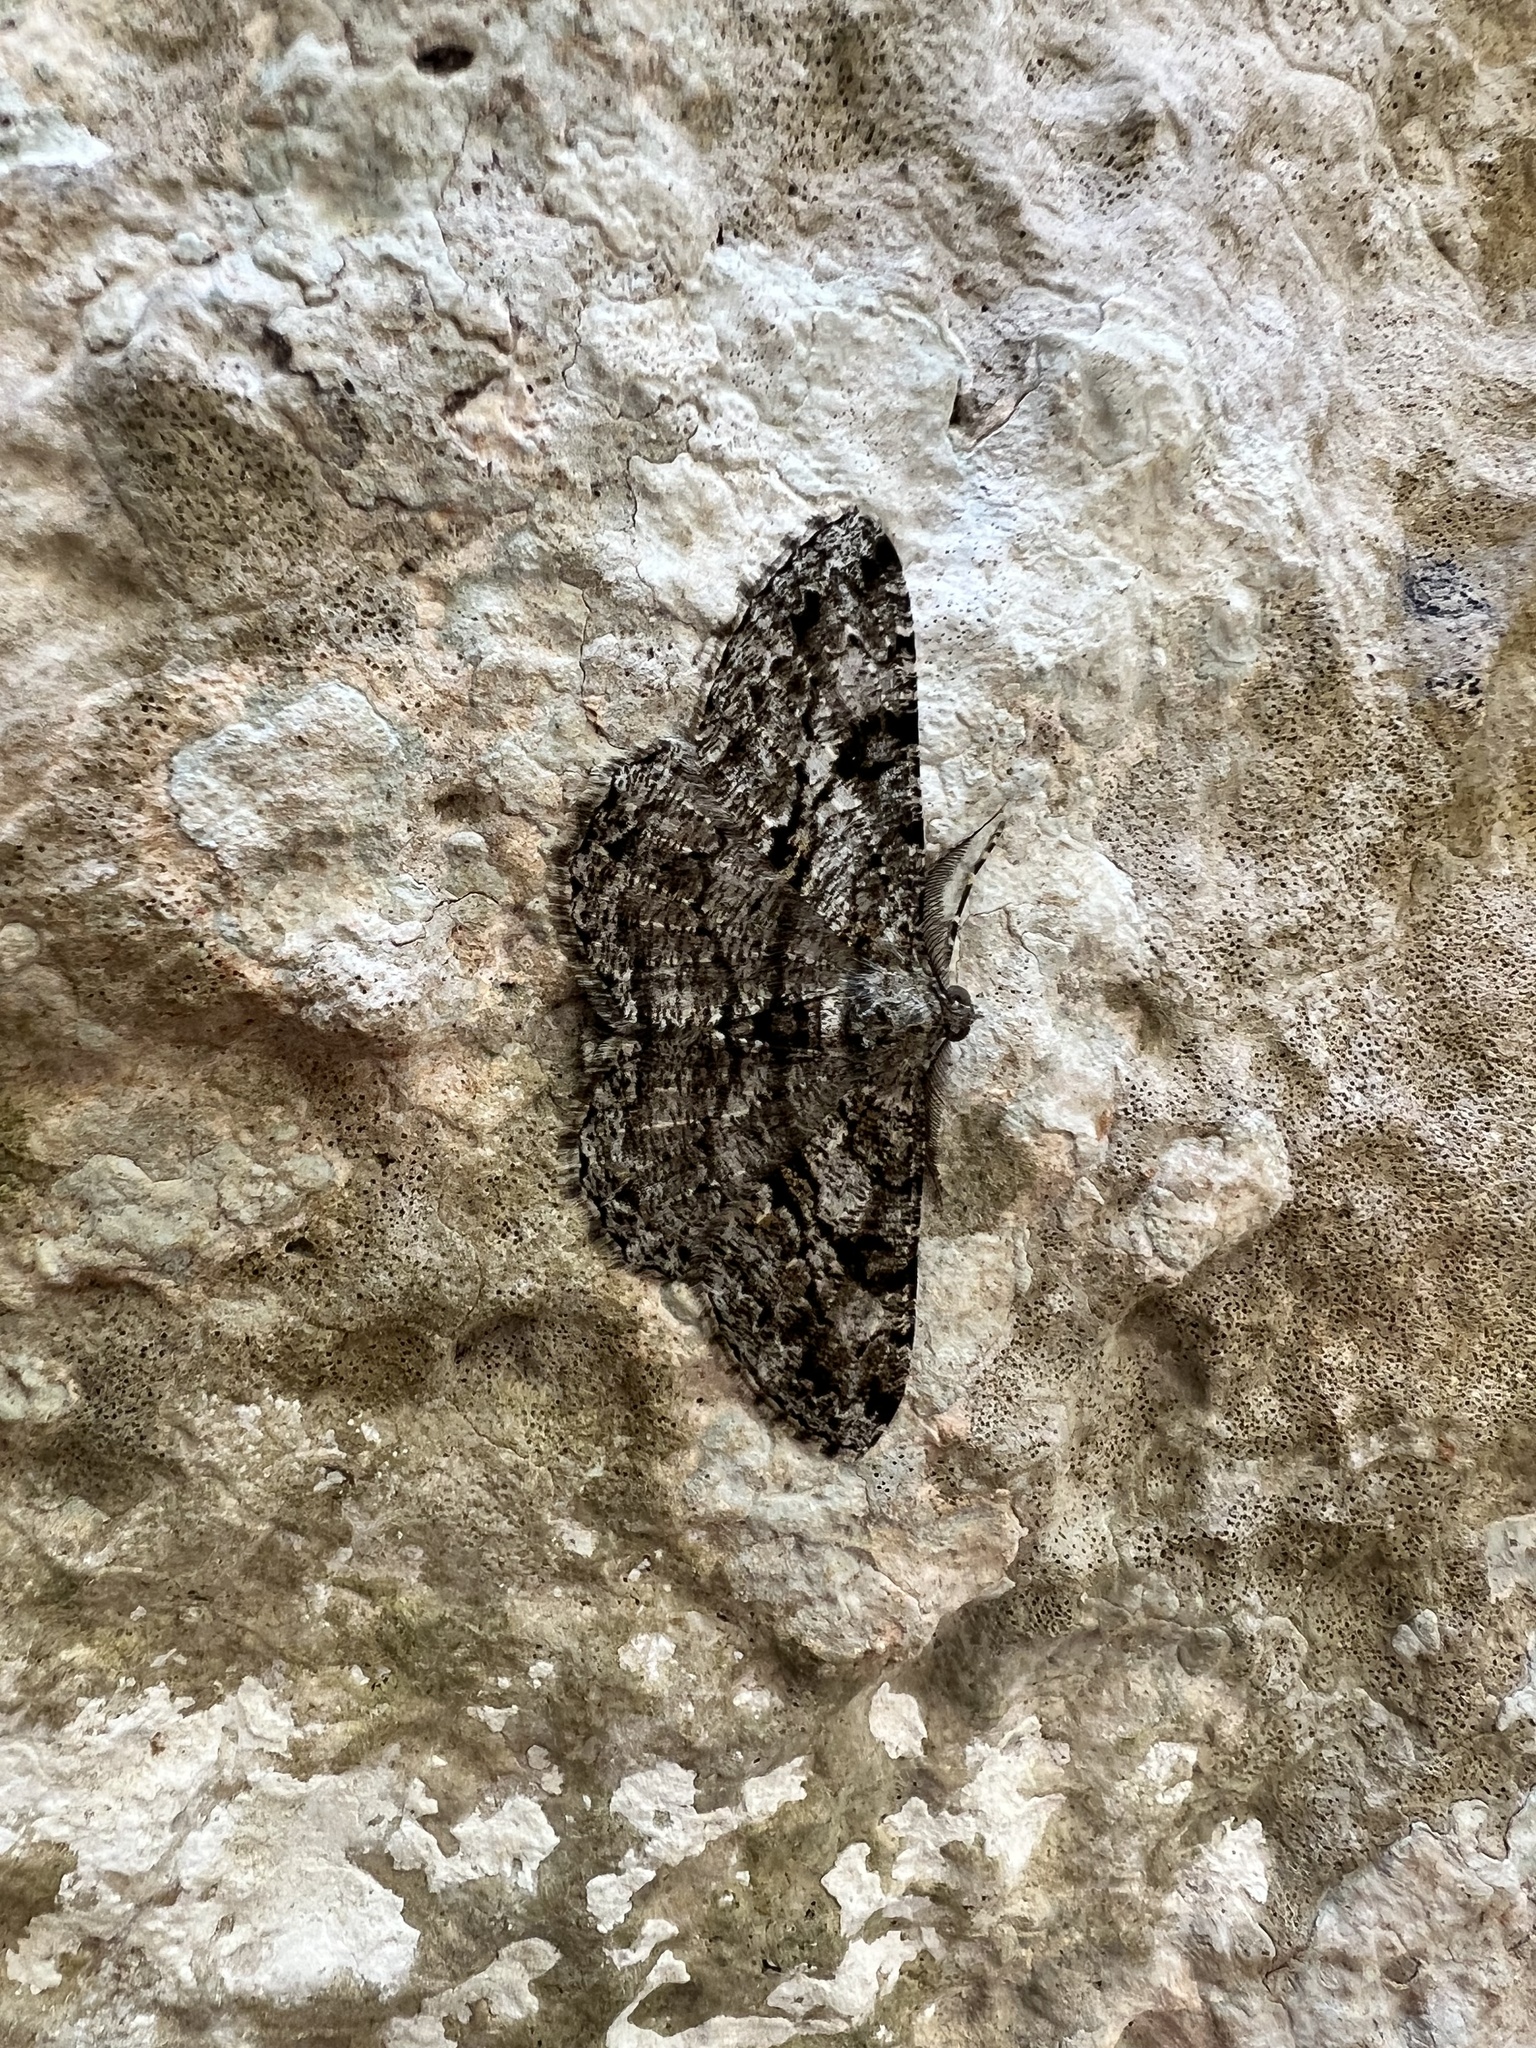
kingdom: Animalia
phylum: Arthropoda
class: Insecta
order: Lepidoptera
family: Geometridae
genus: Peribatodes
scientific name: Peribatodes rhomboidaria
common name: Willow beauty
